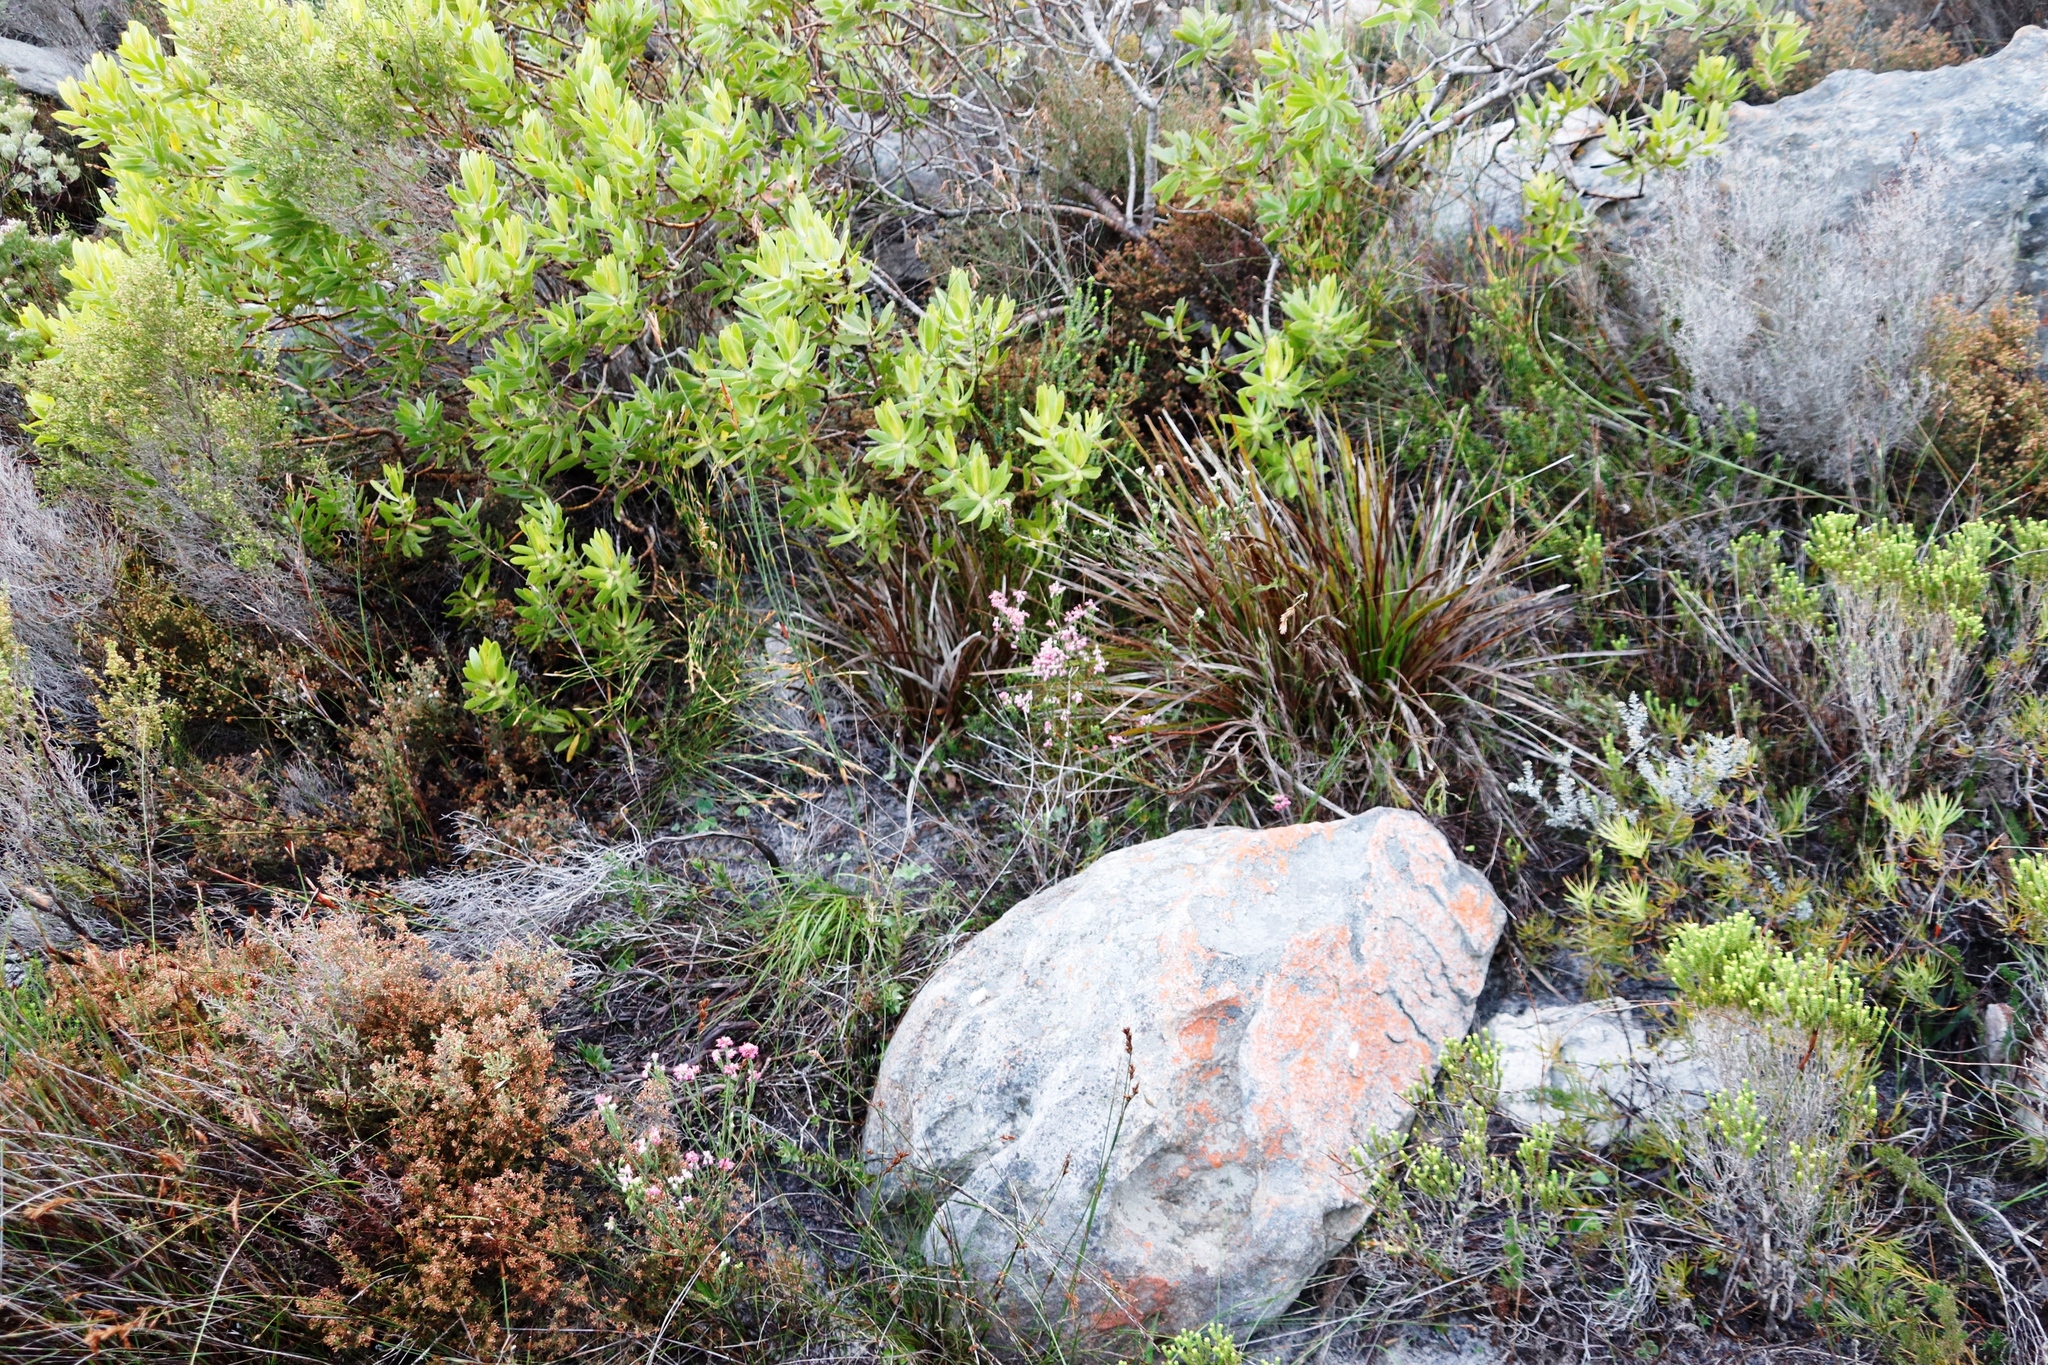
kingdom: Plantae
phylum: Tracheophyta
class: Magnoliopsida
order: Ericales
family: Ericaceae
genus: Erica
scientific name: Erica corifolia
